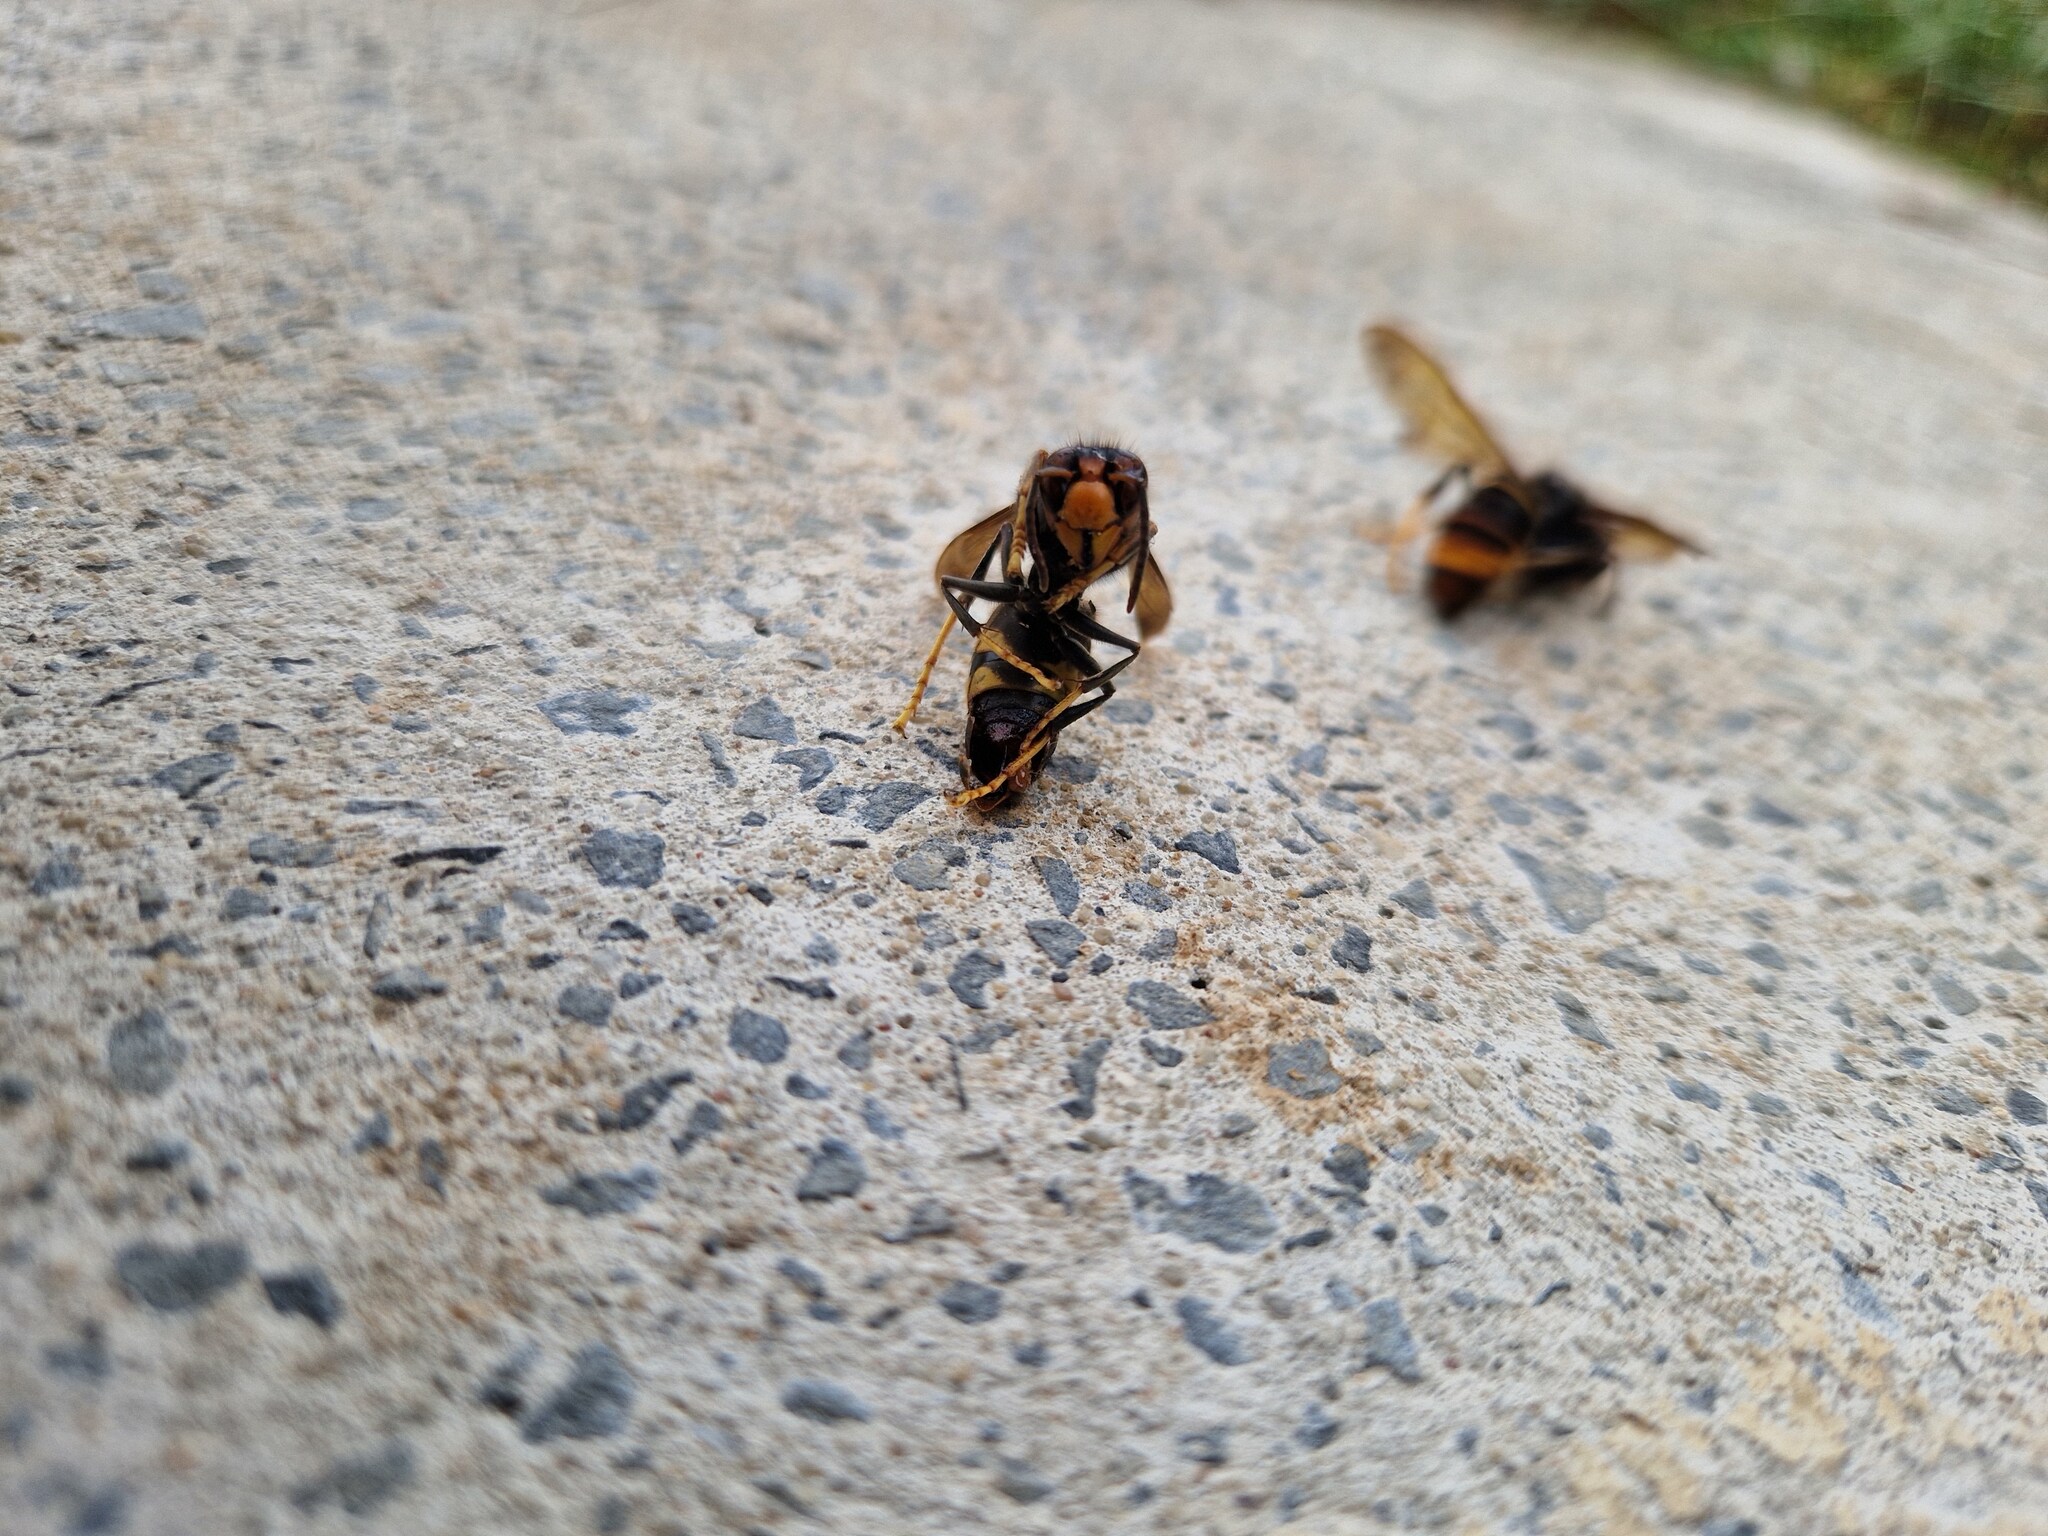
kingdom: Animalia
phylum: Arthropoda
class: Insecta
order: Hymenoptera
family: Vespidae
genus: Vespa
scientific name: Vespa velutina
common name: Asian hornet
